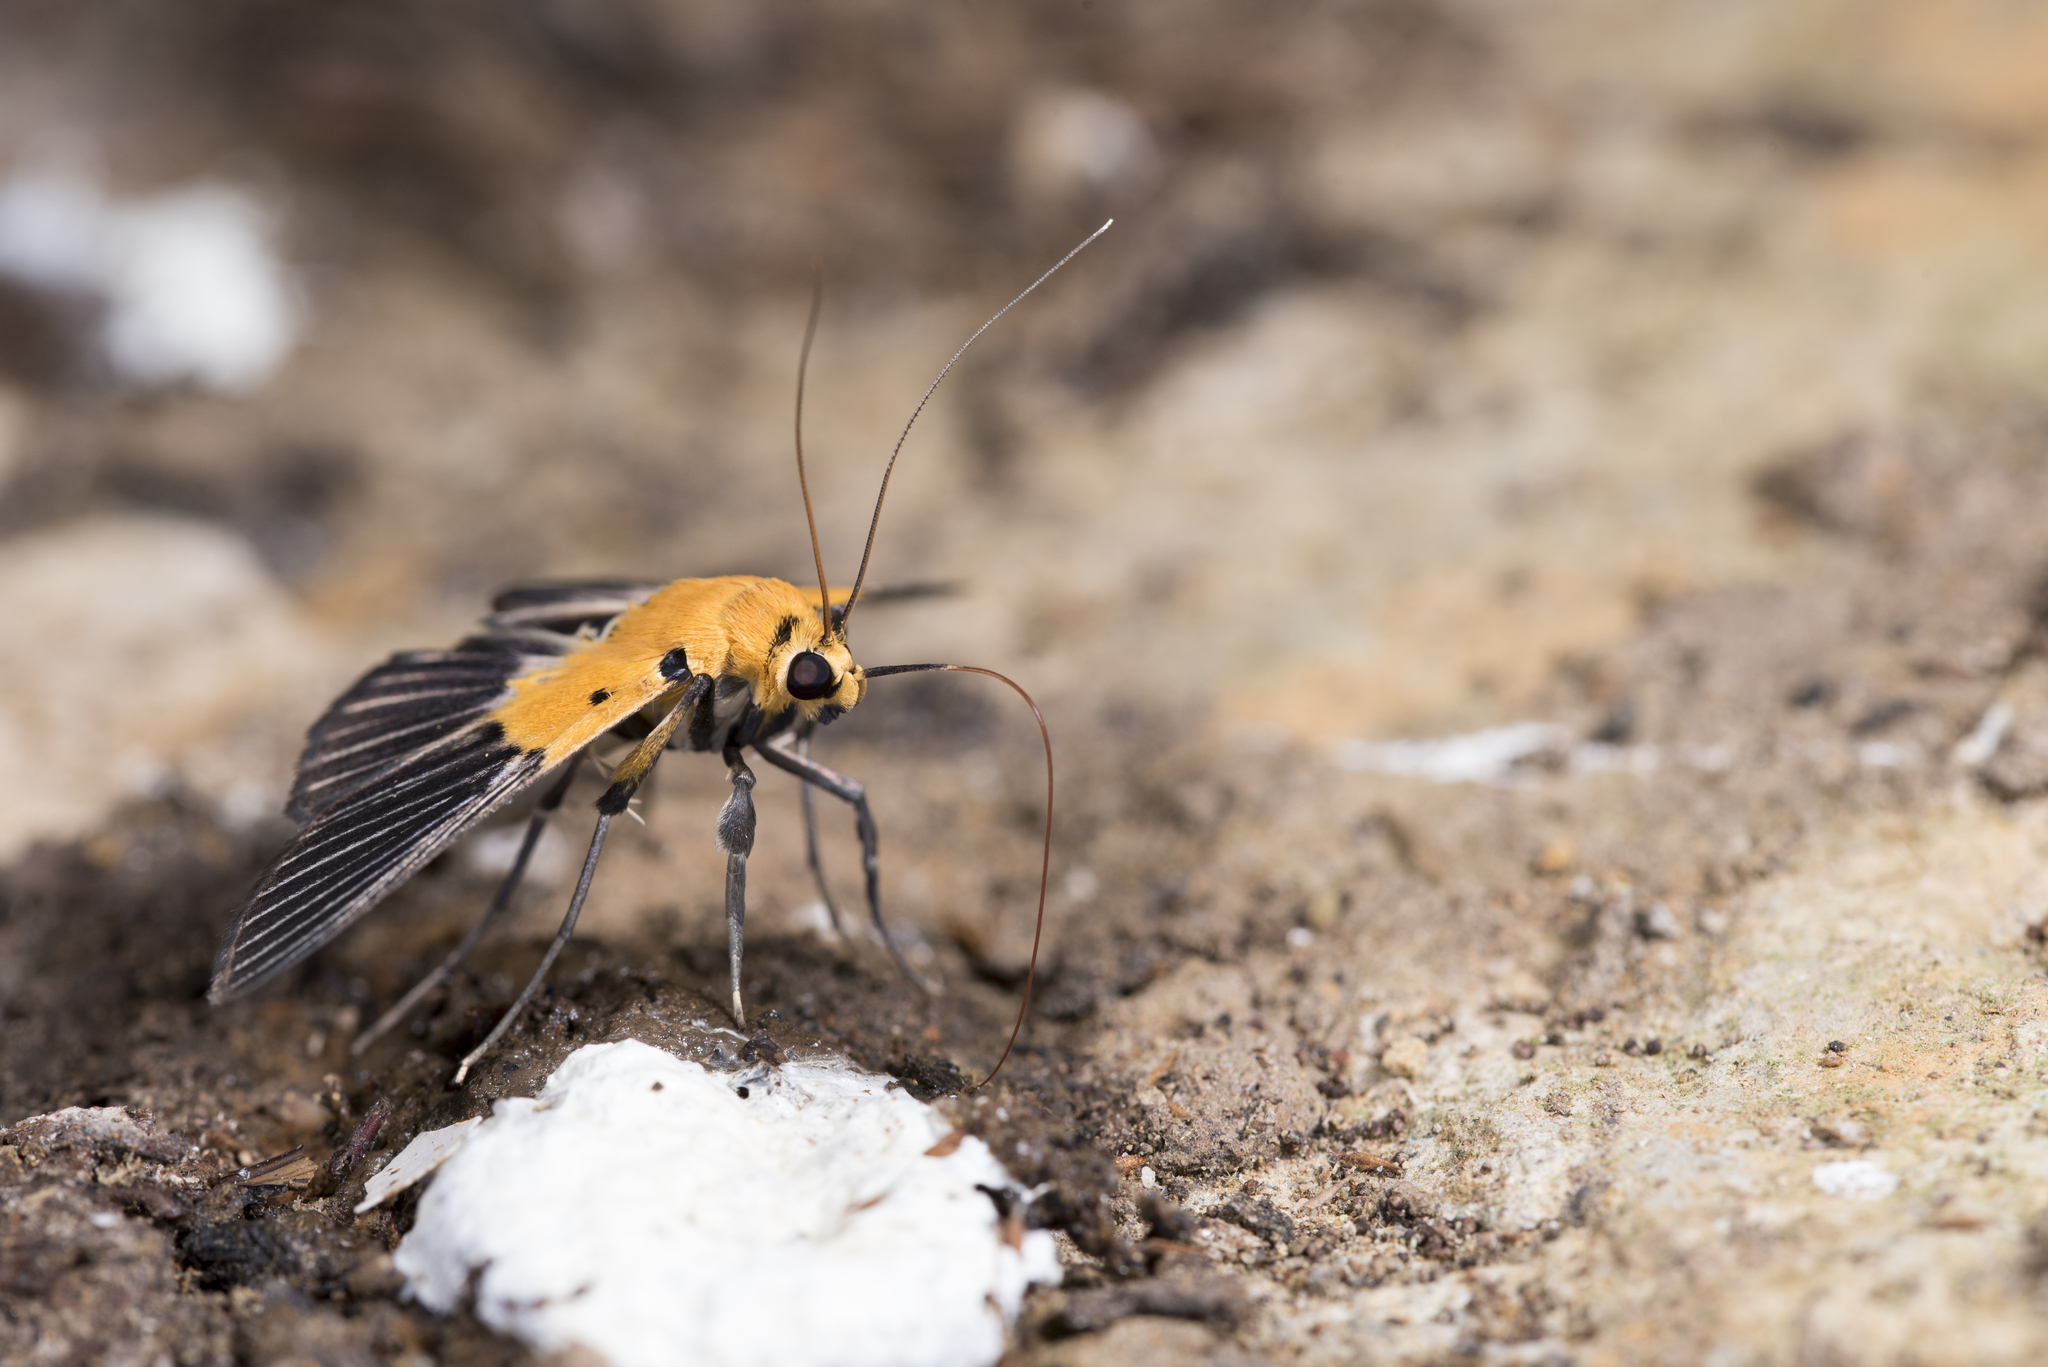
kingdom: Animalia
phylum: Arthropoda
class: Insecta
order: Lepidoptera
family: Crambidae
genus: Nevrina
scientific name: Nevrina procopia
